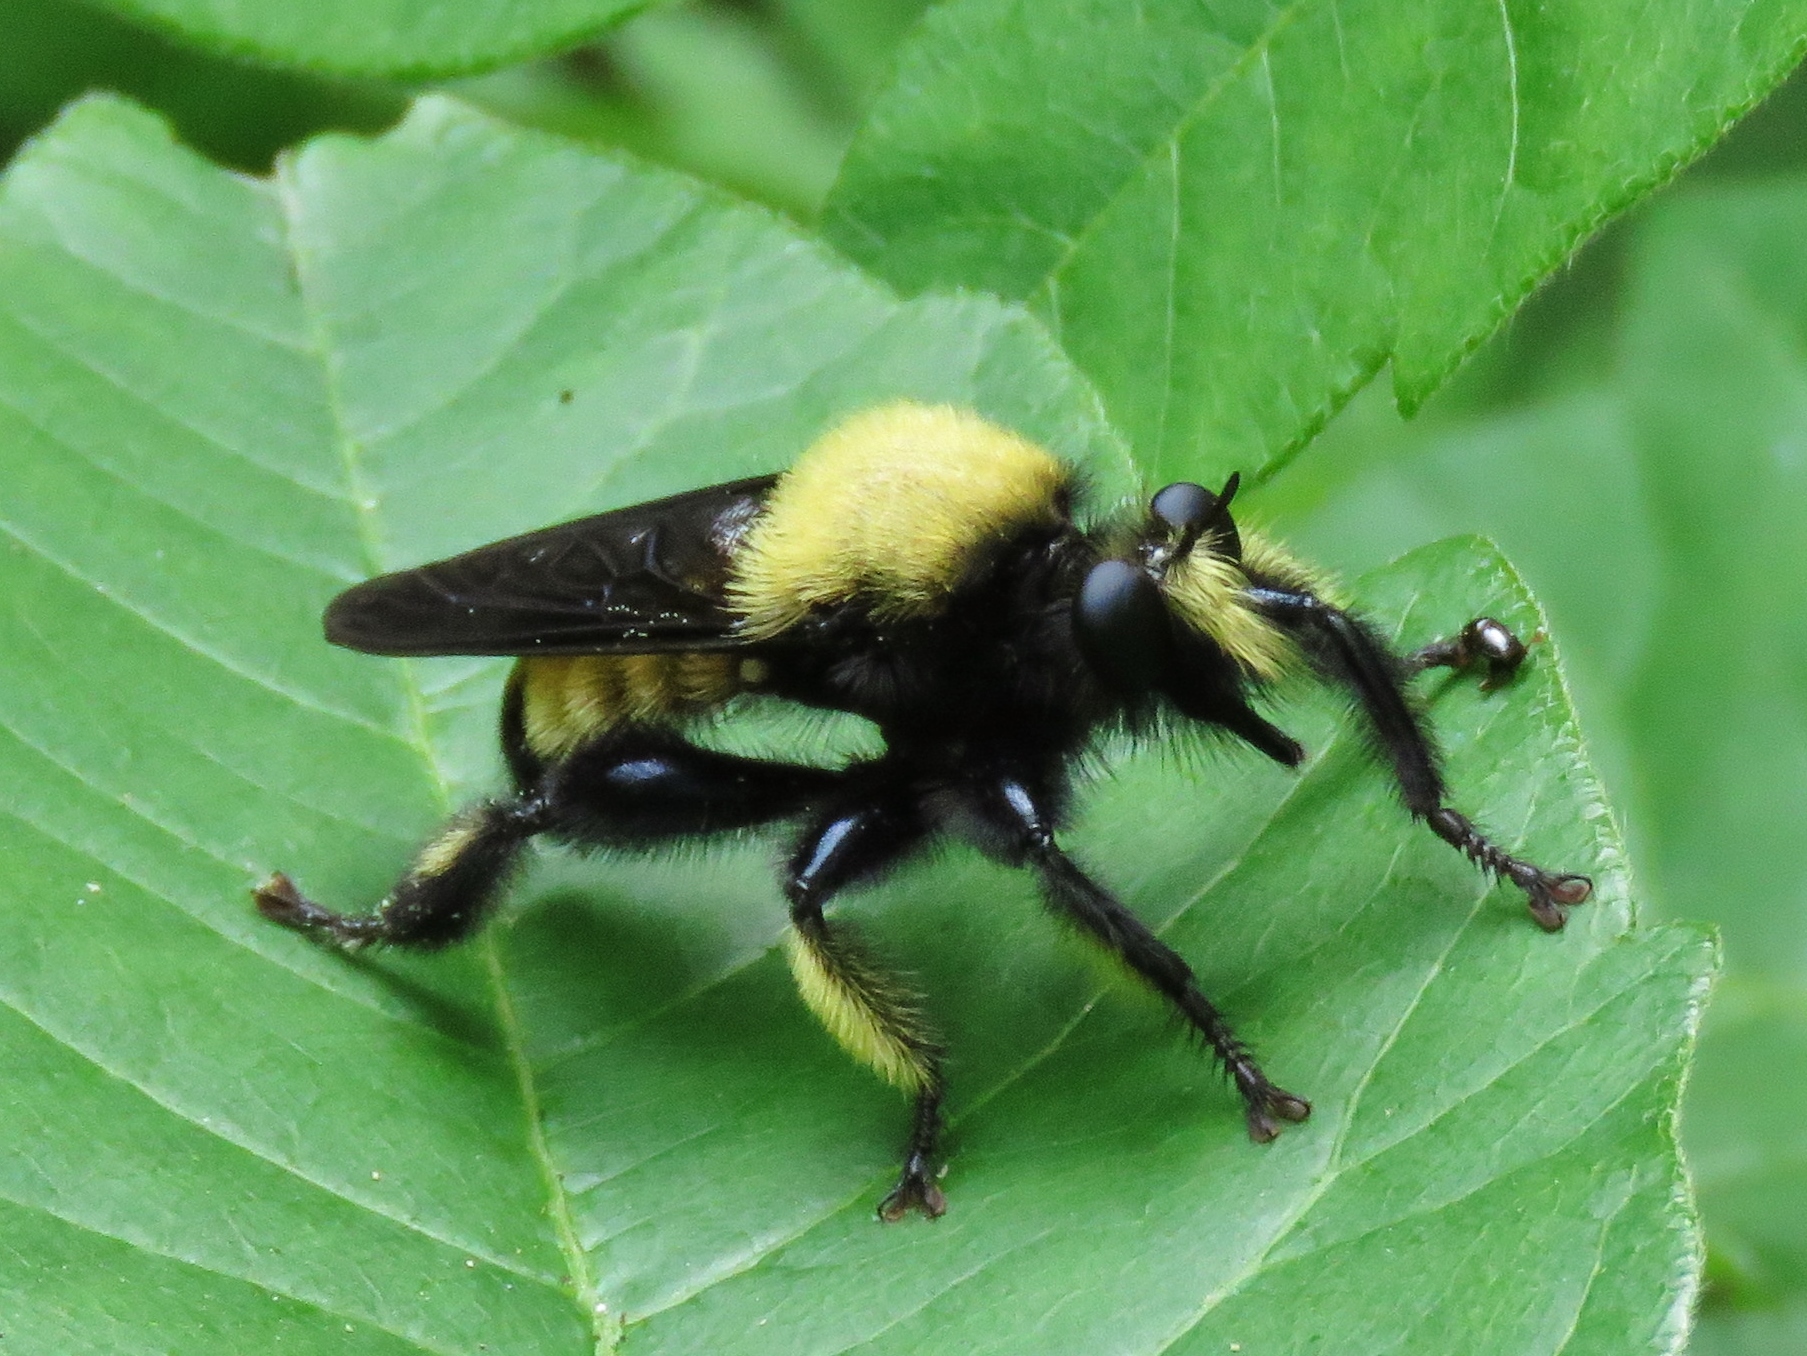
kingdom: Animalia
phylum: Arthropoda
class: Insecta
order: Diptera
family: Asilidae
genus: Laphria
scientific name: Laphria macquarti
